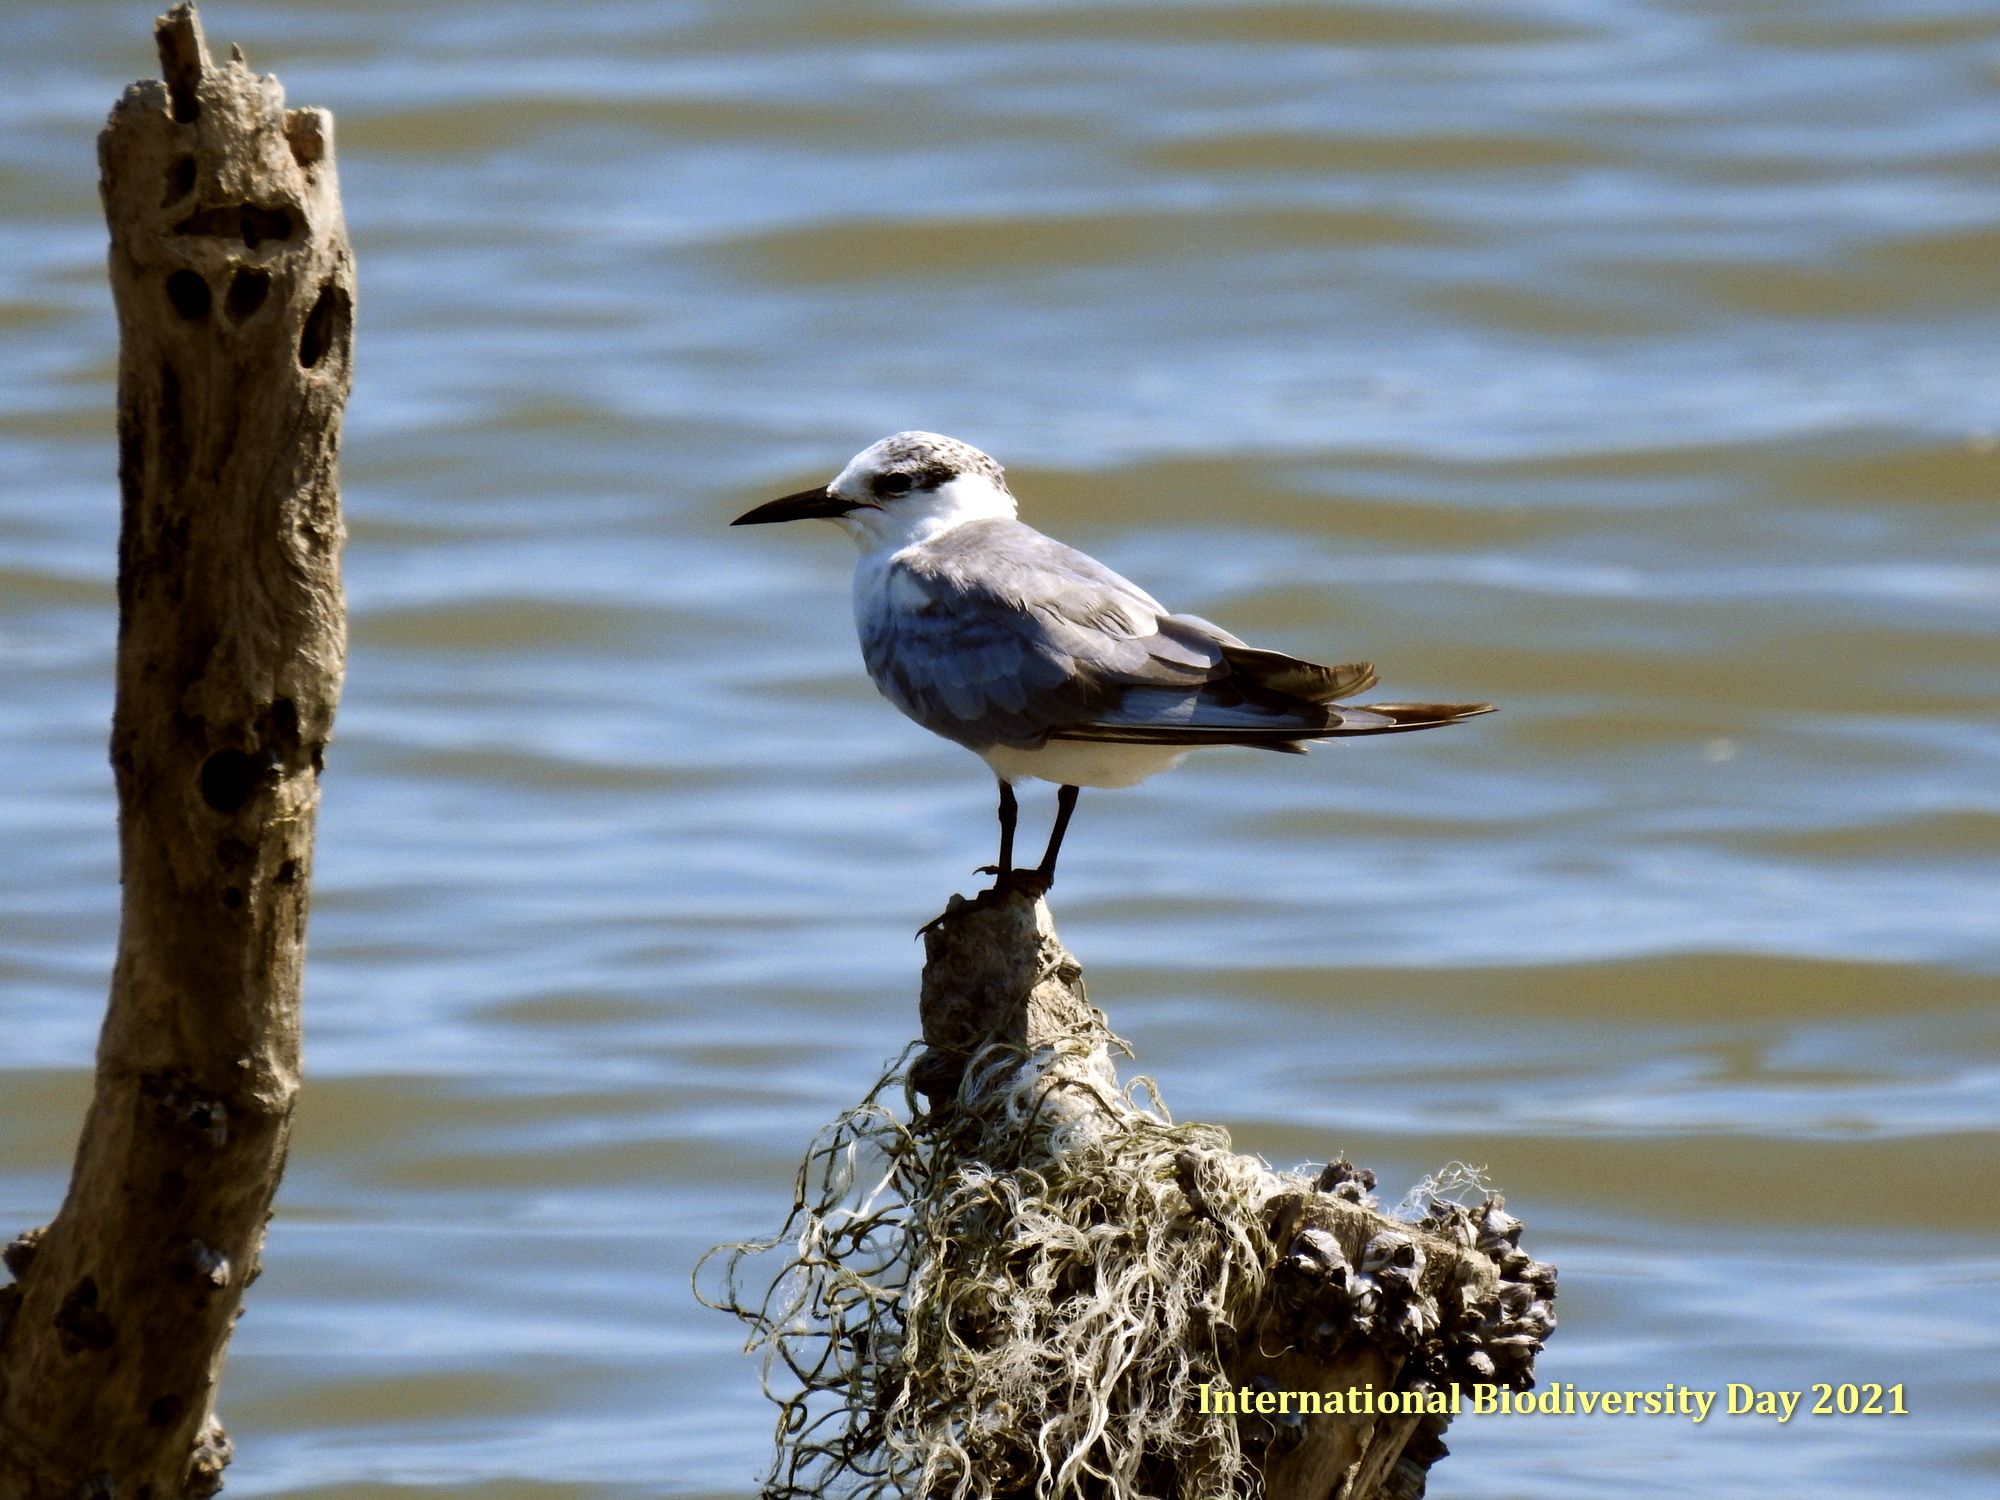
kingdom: Animalia
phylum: Chordata
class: Aves
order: Charadriiformes
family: Laridae
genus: Chlidonias
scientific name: Chlidonias hybrida
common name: Whiskered tern
